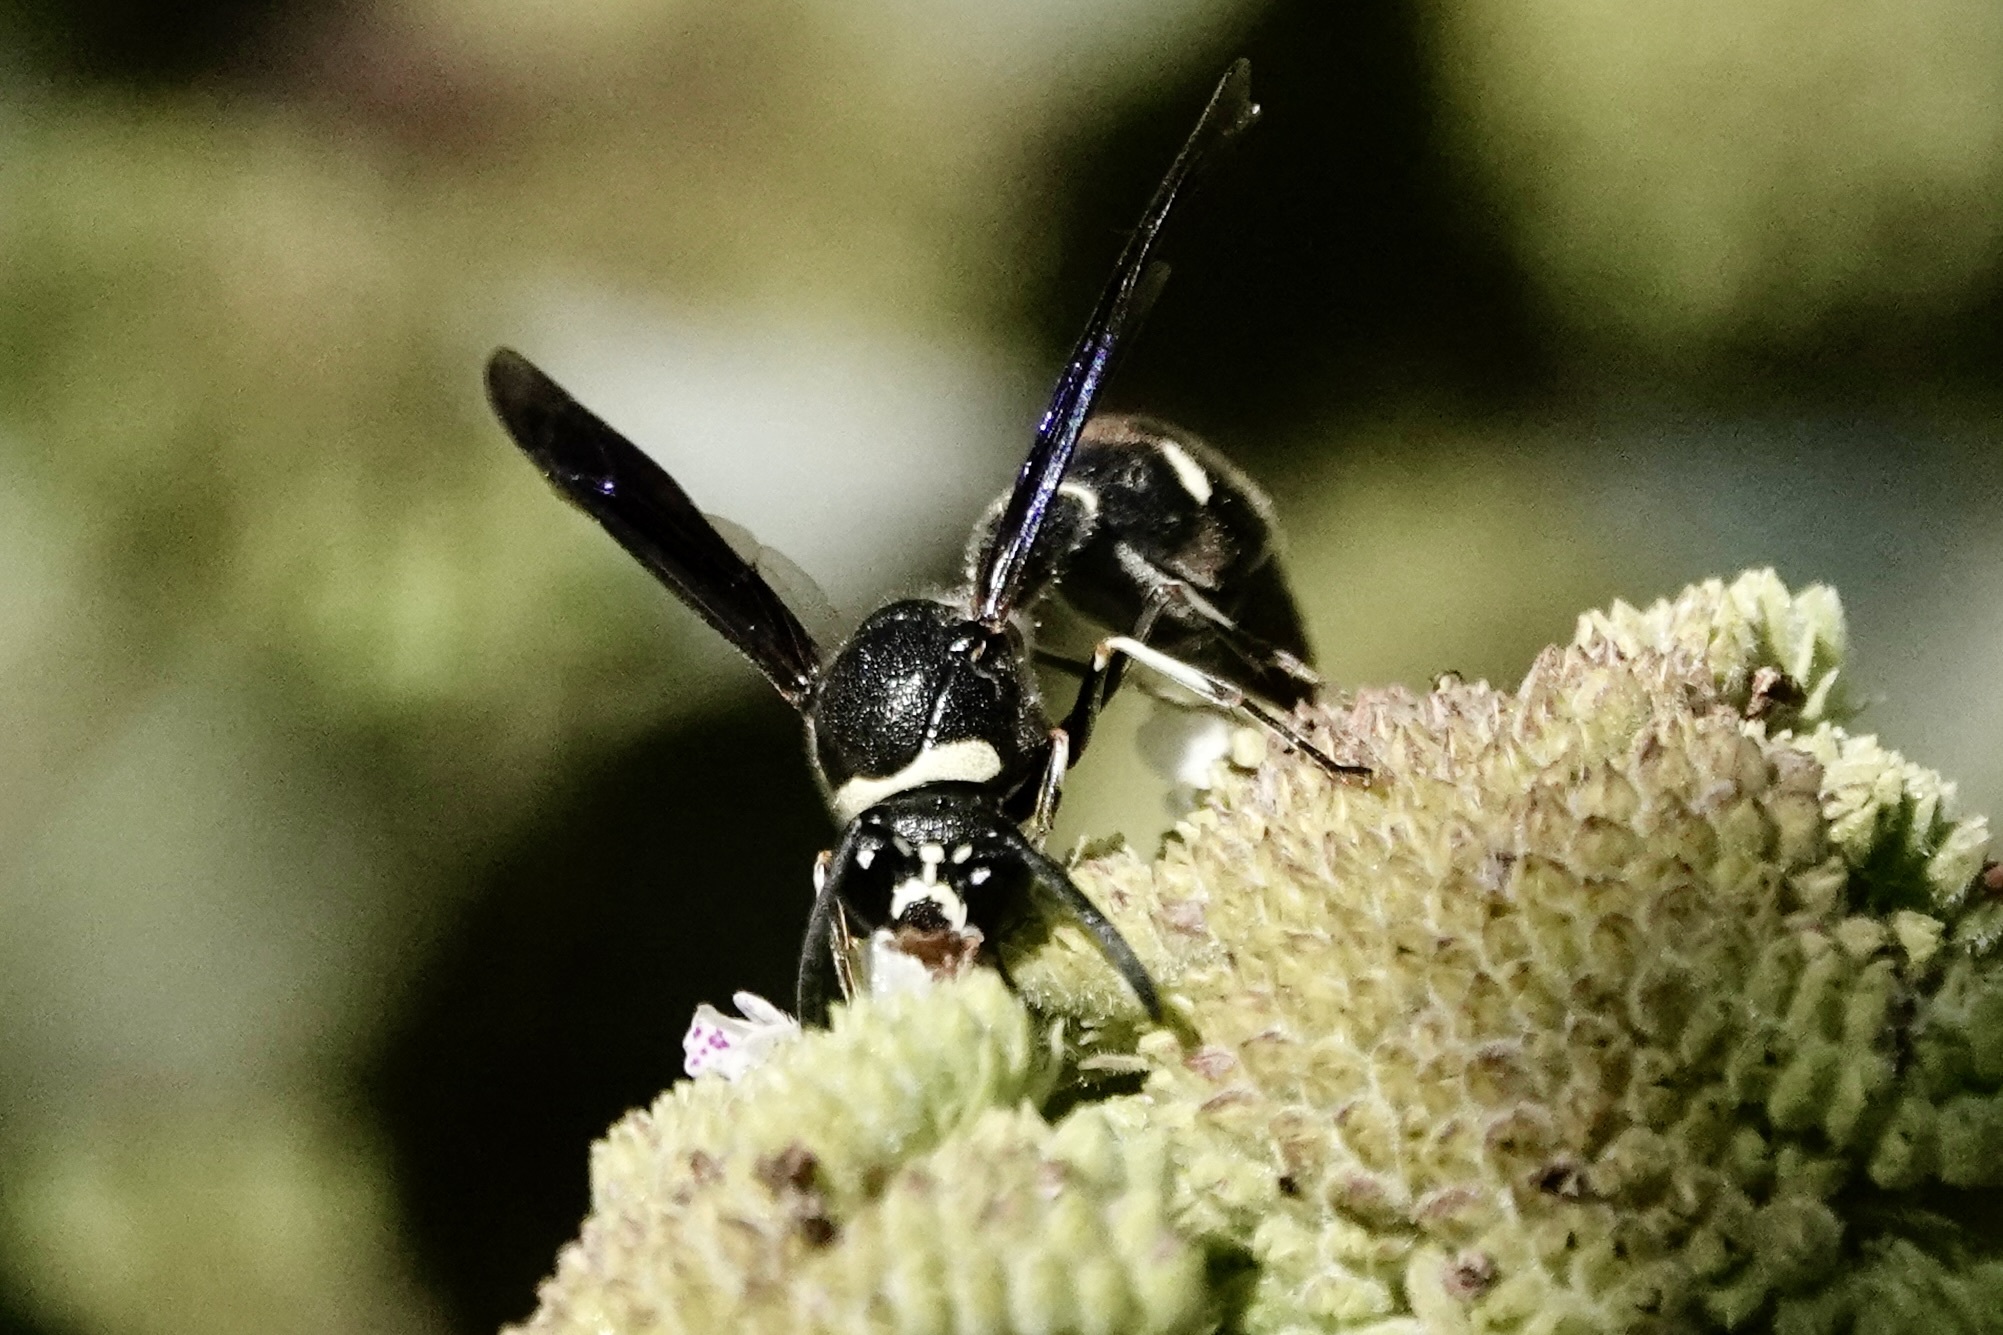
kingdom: Animalia
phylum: Arthropoda
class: Insecta
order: Hymenoptera
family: Vespidae
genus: Eumenes
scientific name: Eumenes fraternus
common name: Fraternal potter wasp
